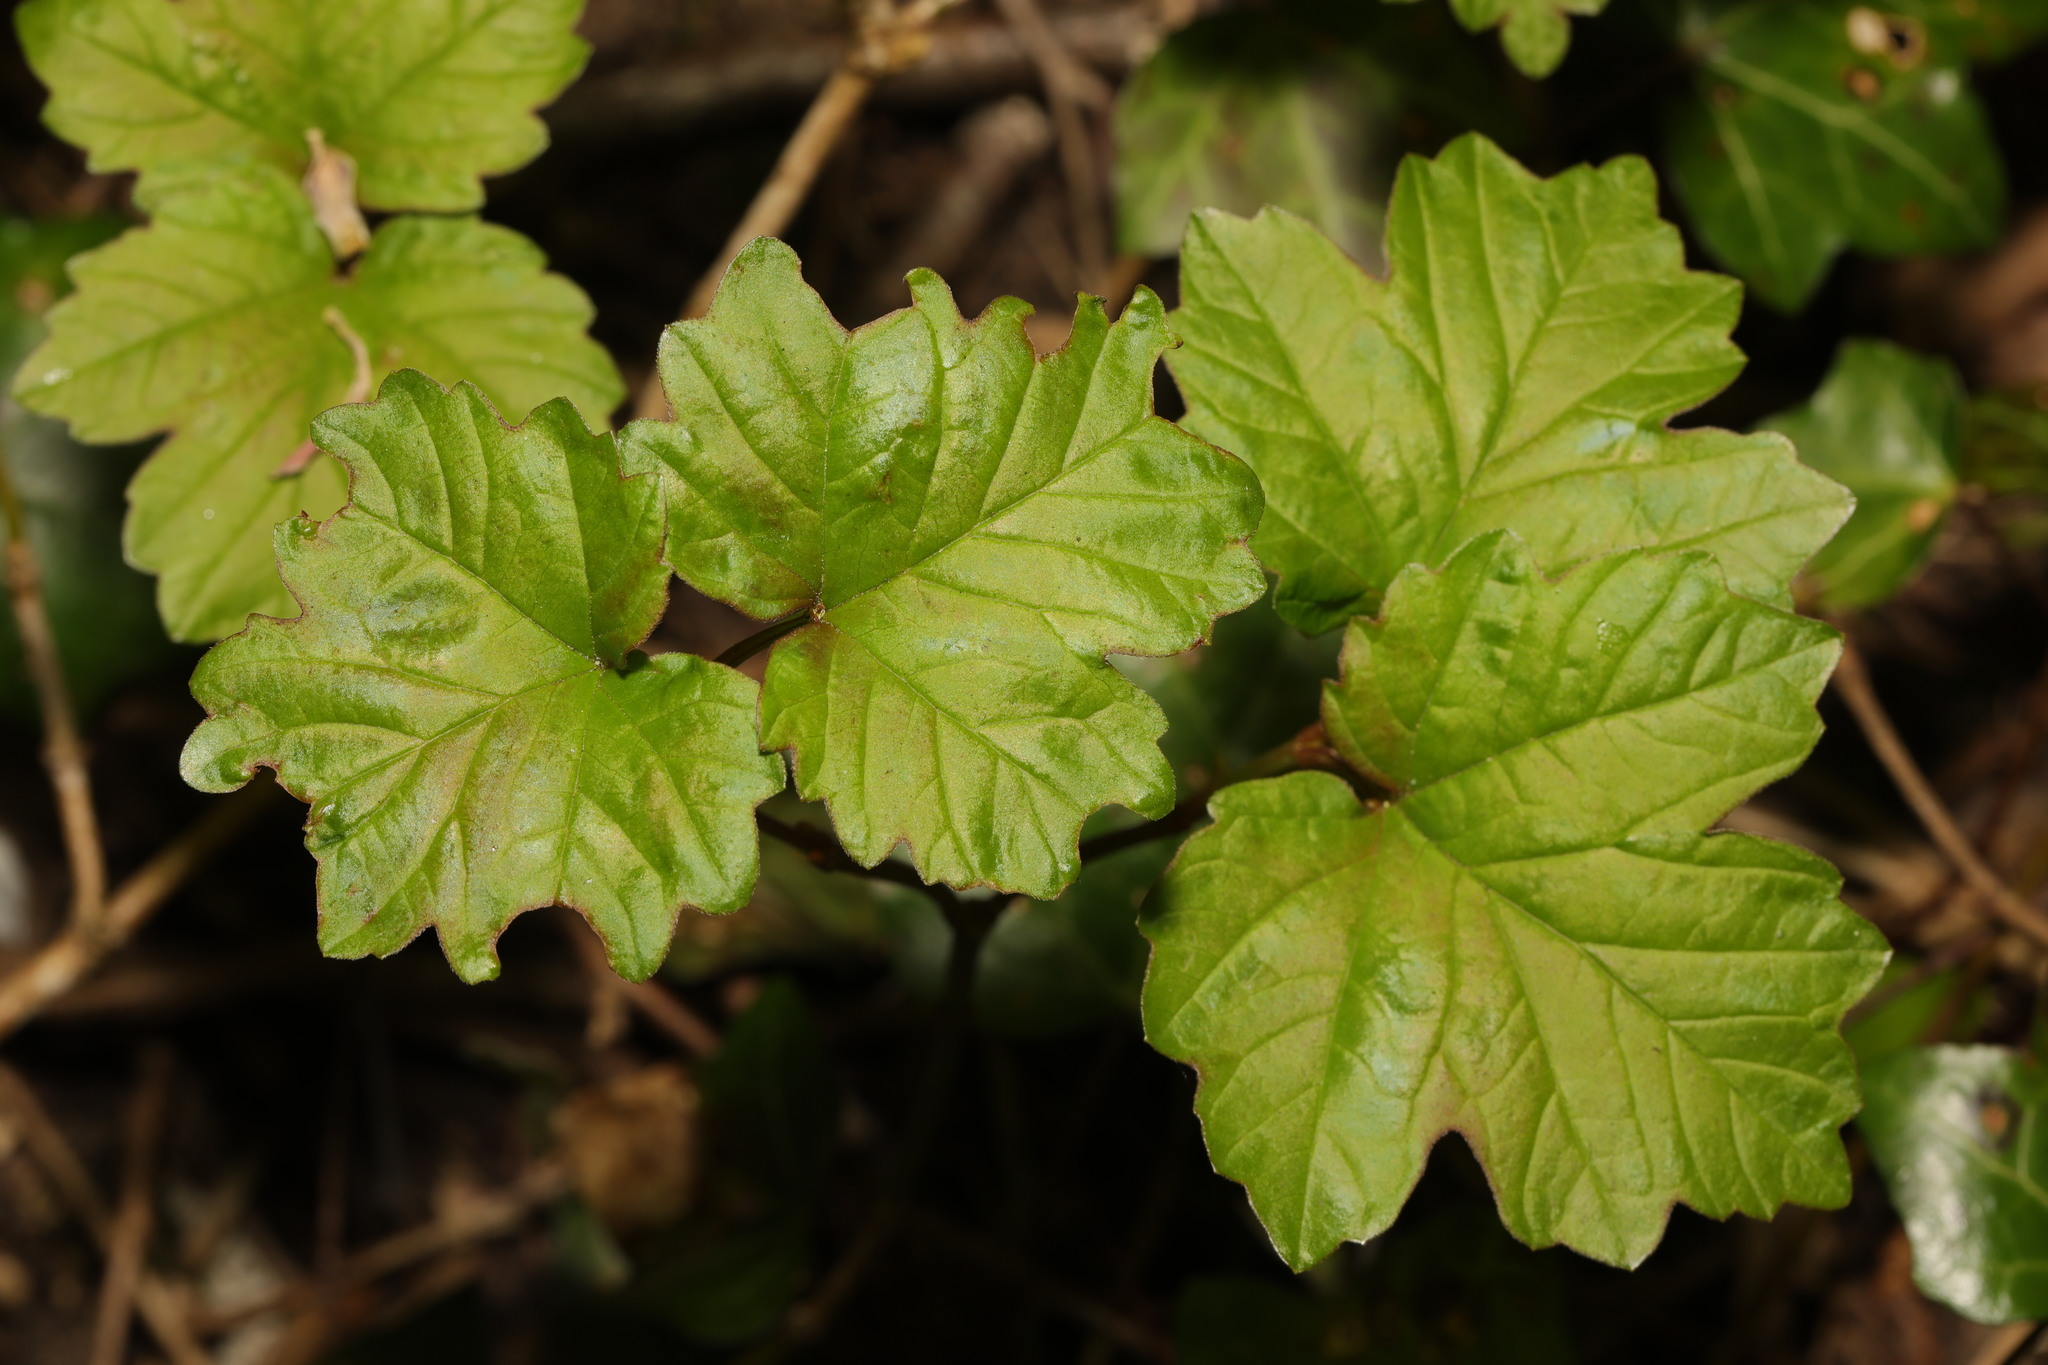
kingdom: Plantae
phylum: Tracheophyta
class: Magnoliopsida
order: Dipsacales
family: Viburnaceae
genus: Viburnum
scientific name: Viburnum opulus
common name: Guelder-rose
